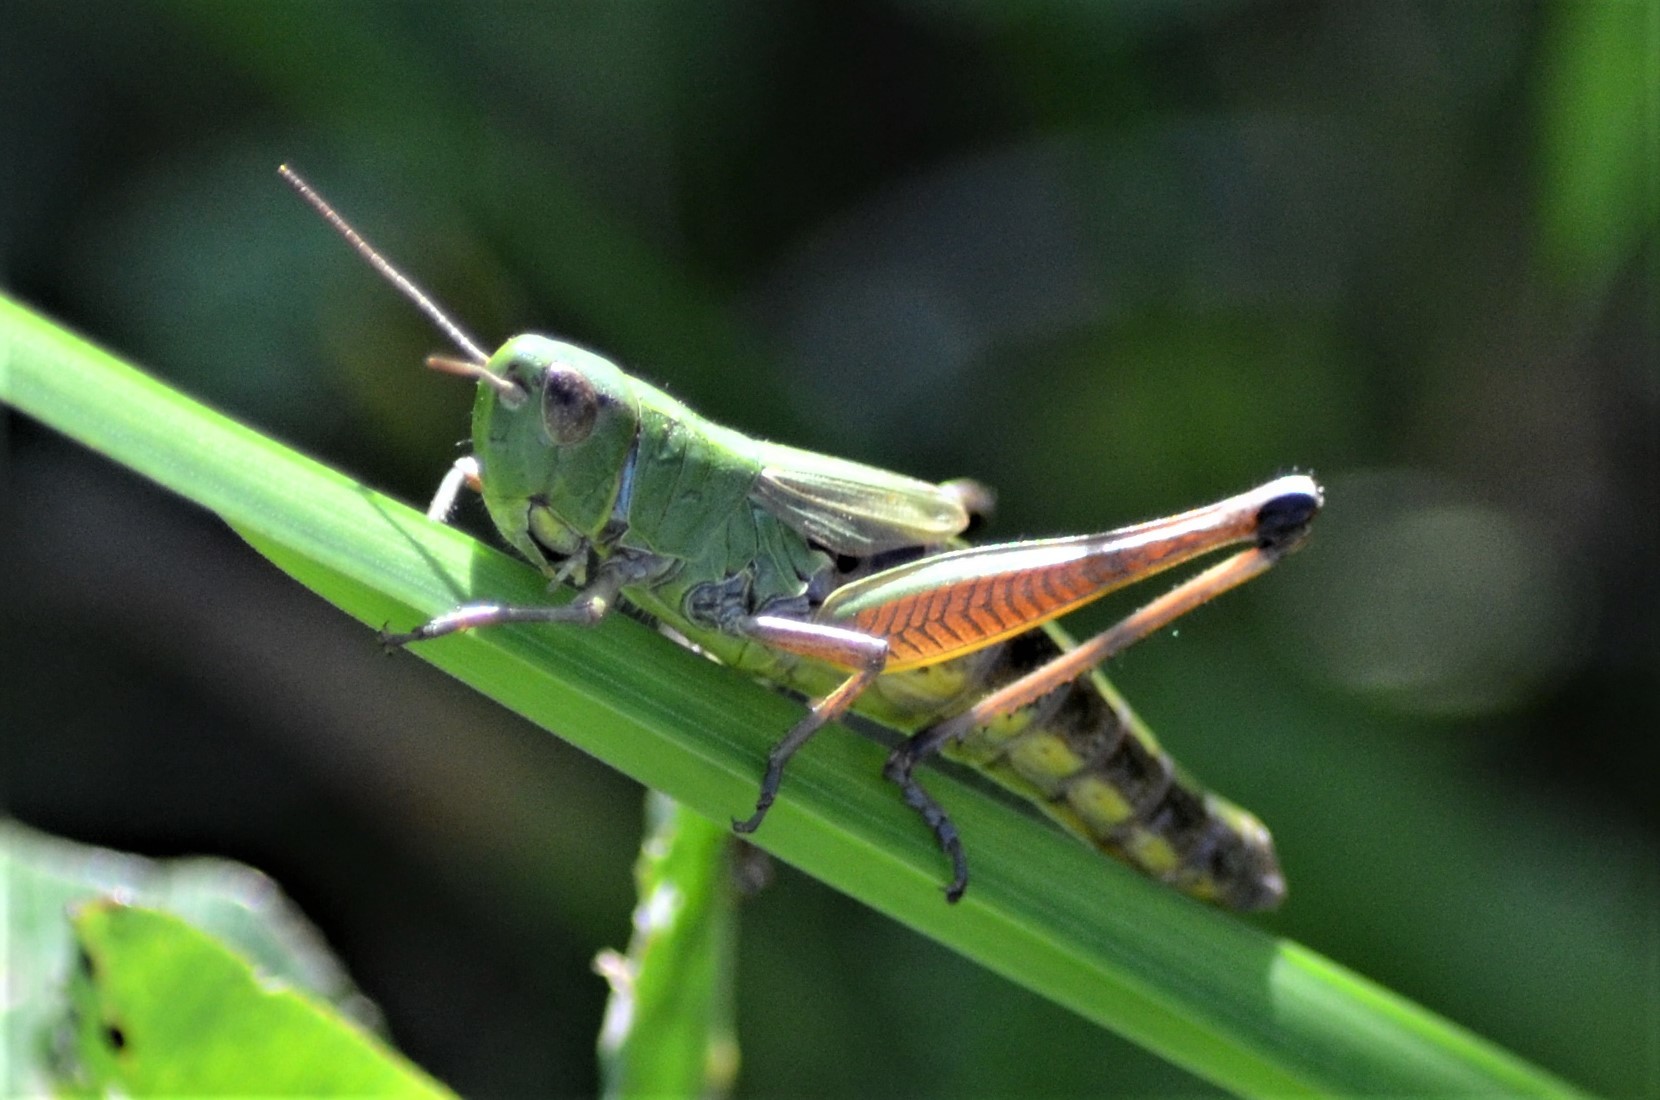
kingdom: Animalia
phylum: Arthropoda
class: Insecta
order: Orthoptera
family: Acrididae
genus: Pseudochorthippus
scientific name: Pseudochorthippus parallelus
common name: Meadow grasshopper
